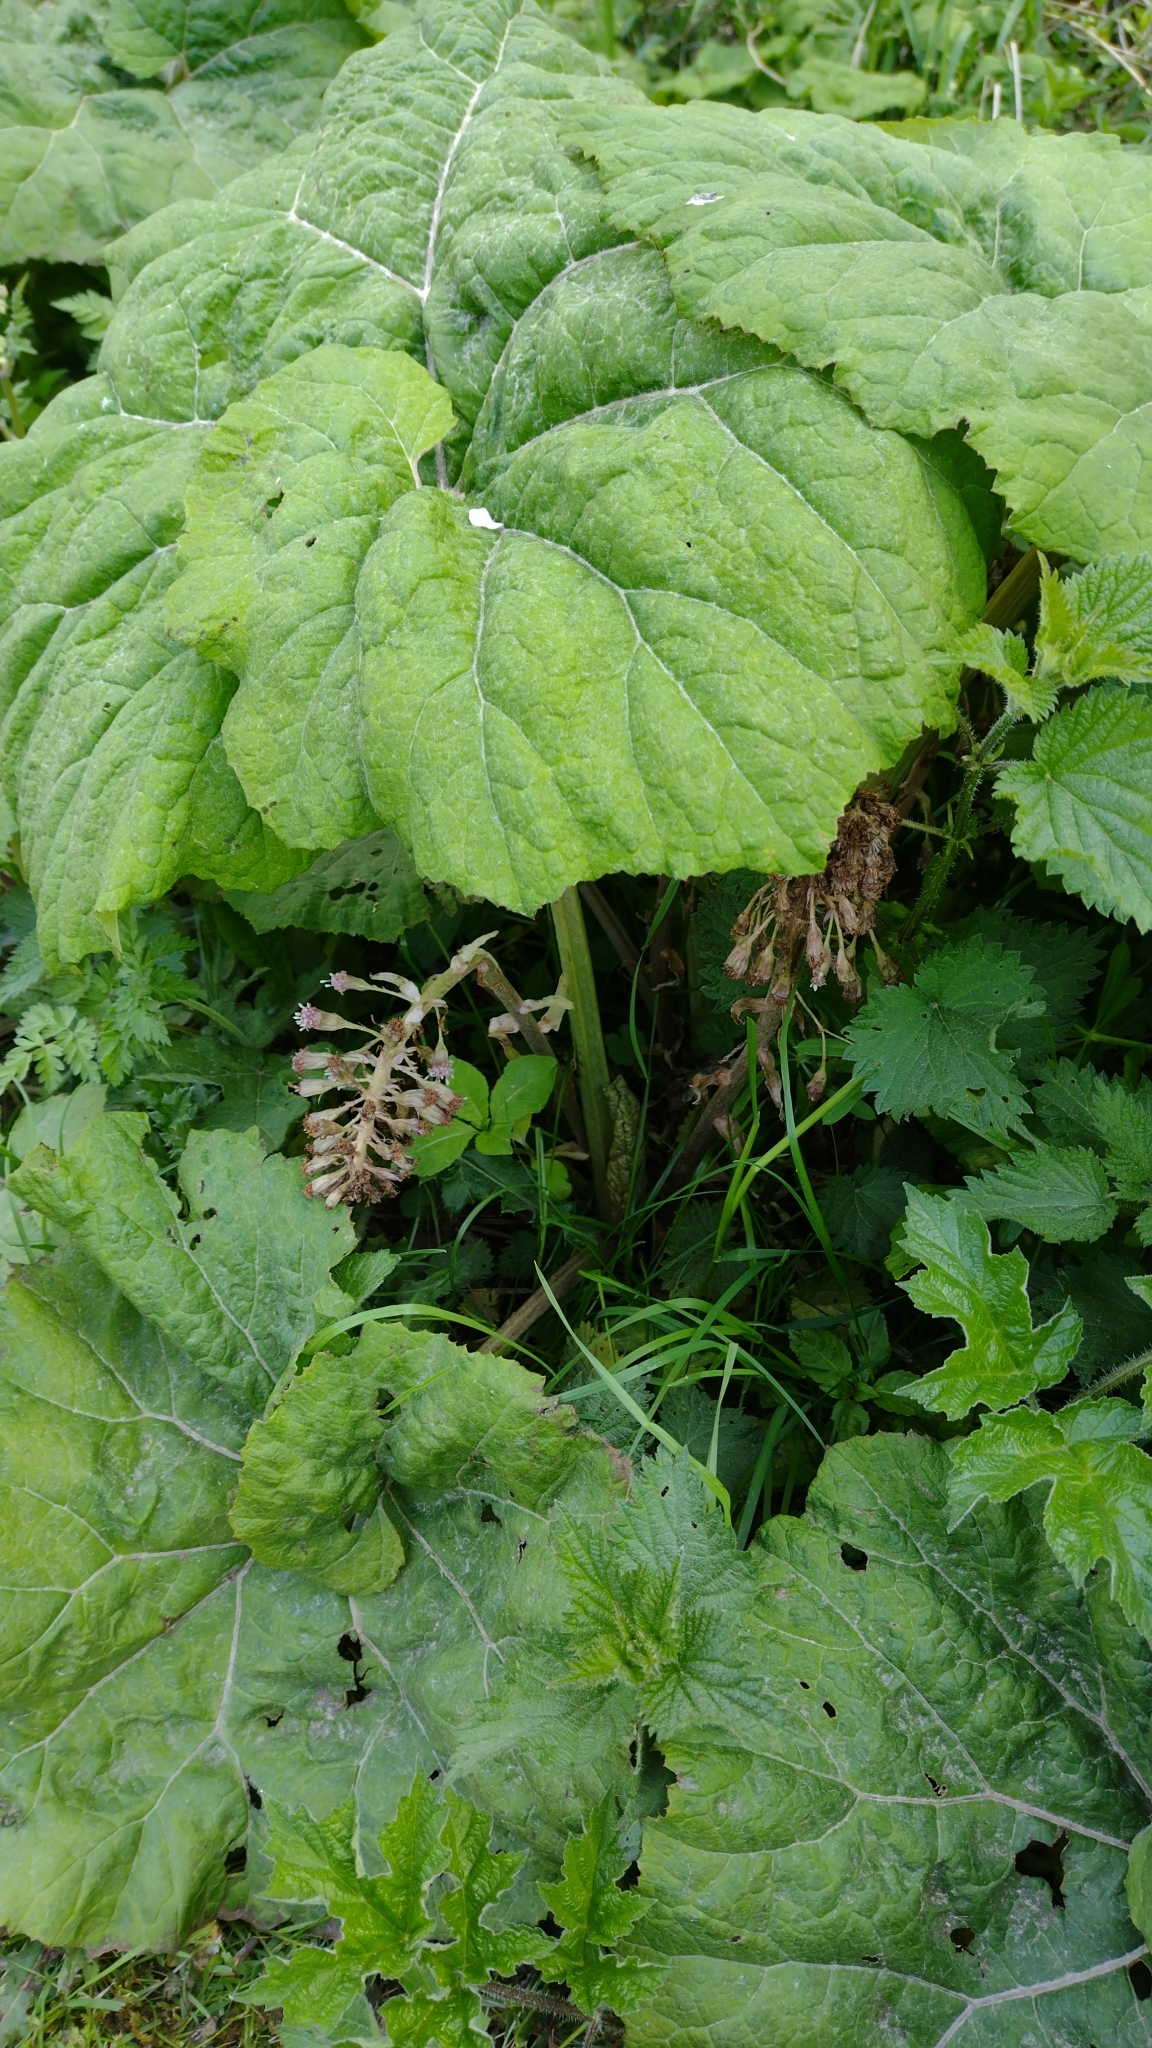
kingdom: Plantae
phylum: Tracheophyta
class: Magnoliopsida
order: Asterales
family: Asteraceae
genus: Petasites
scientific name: Petasites hybridus
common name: Butterbur
